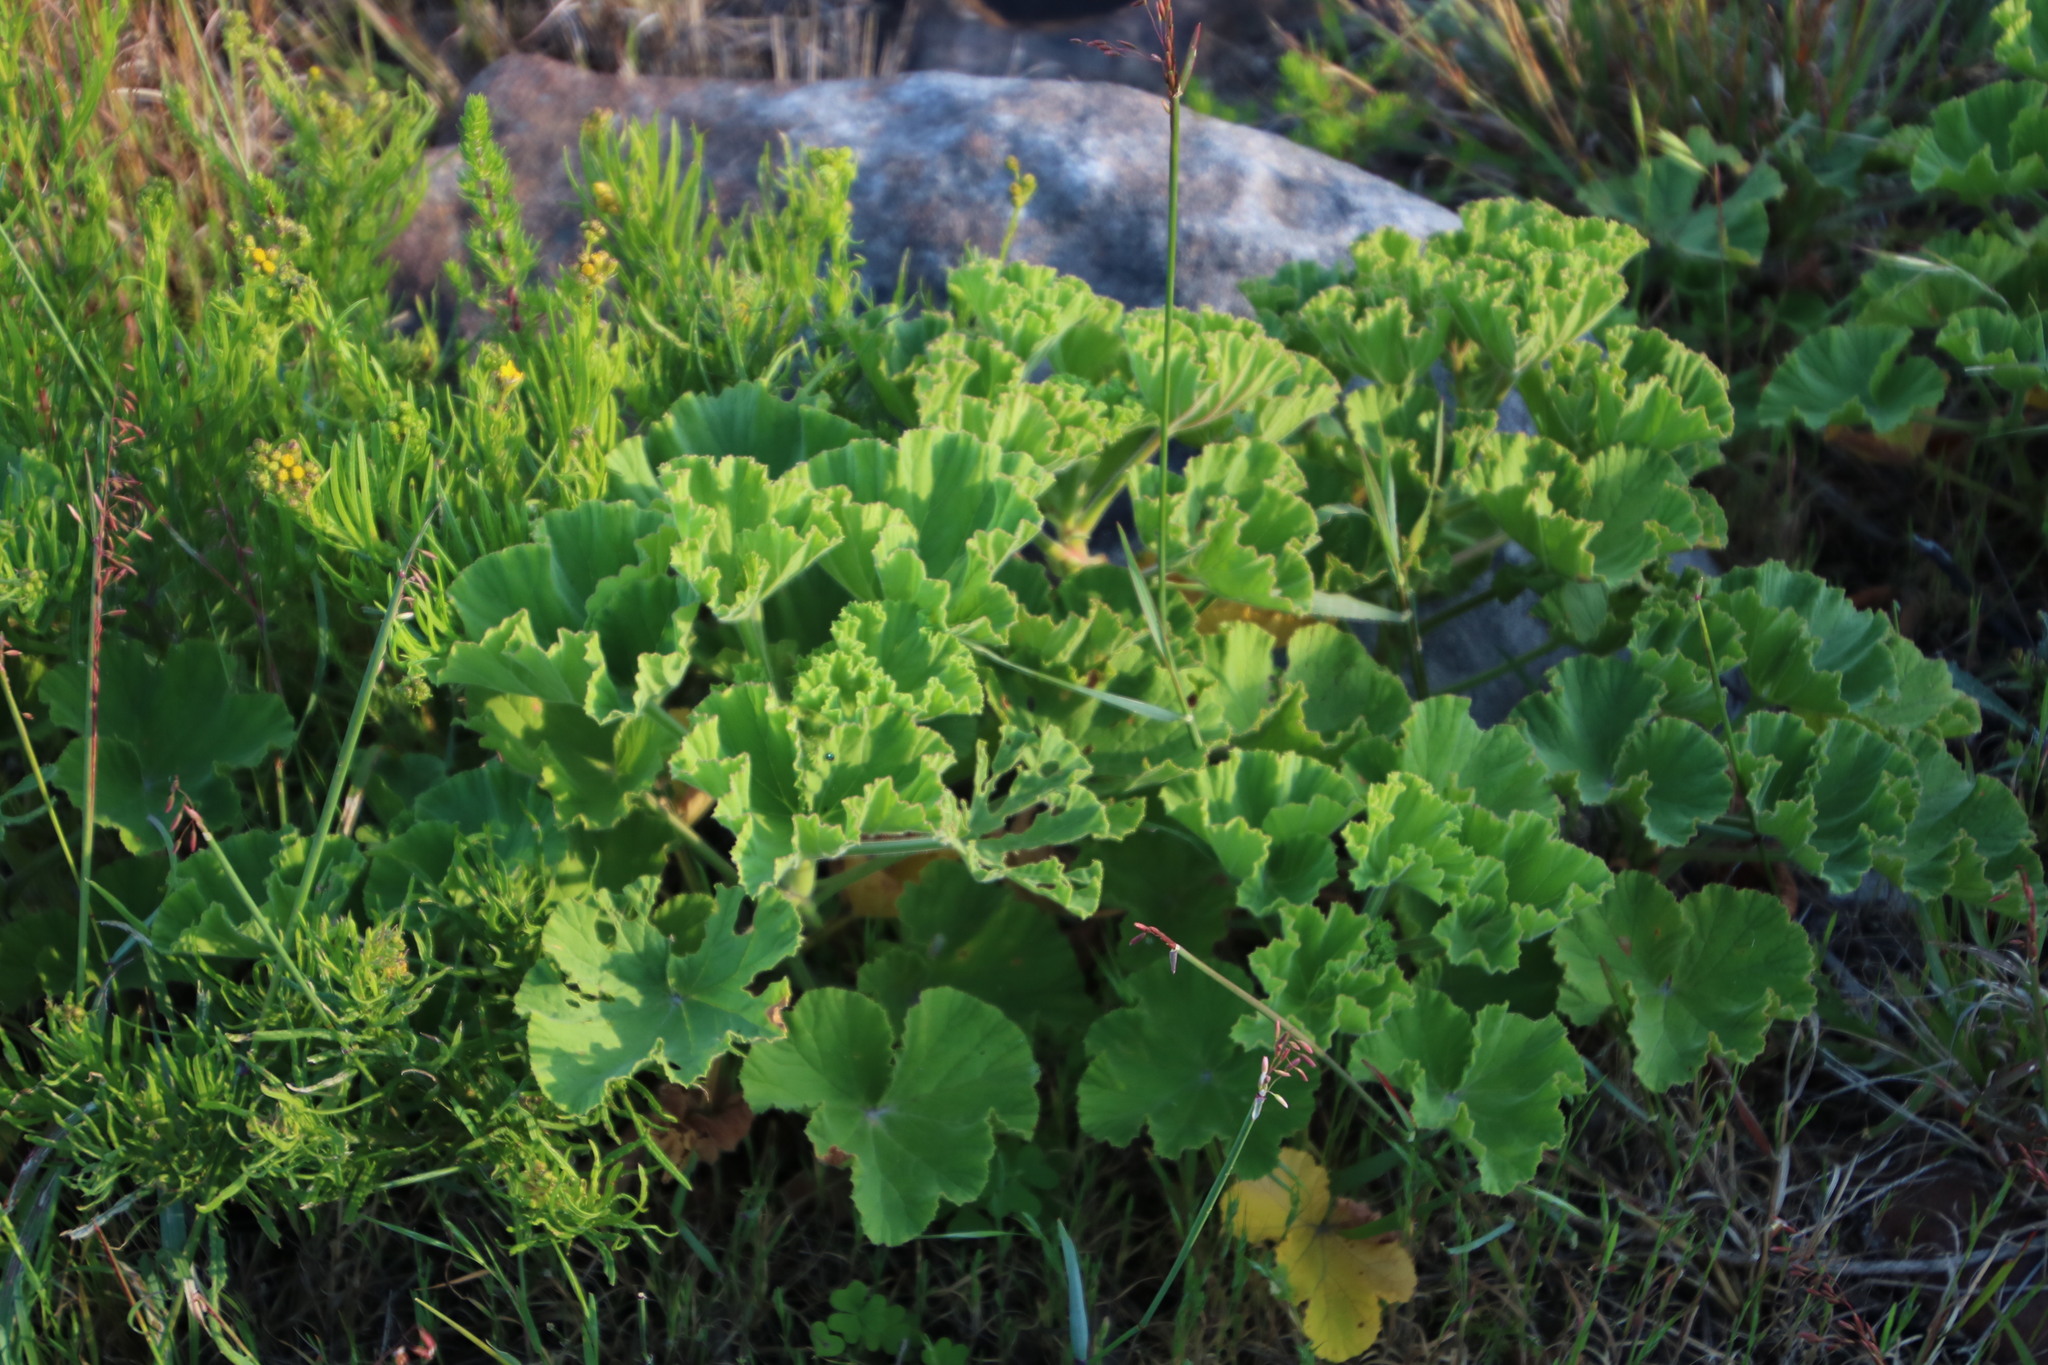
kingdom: Plantae
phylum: Tracheophyta
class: Magnoliopsida
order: Geraniales
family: Geraniaceae
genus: Pelargonium
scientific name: Pelargonium cucullatum
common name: Tree pelargonium
